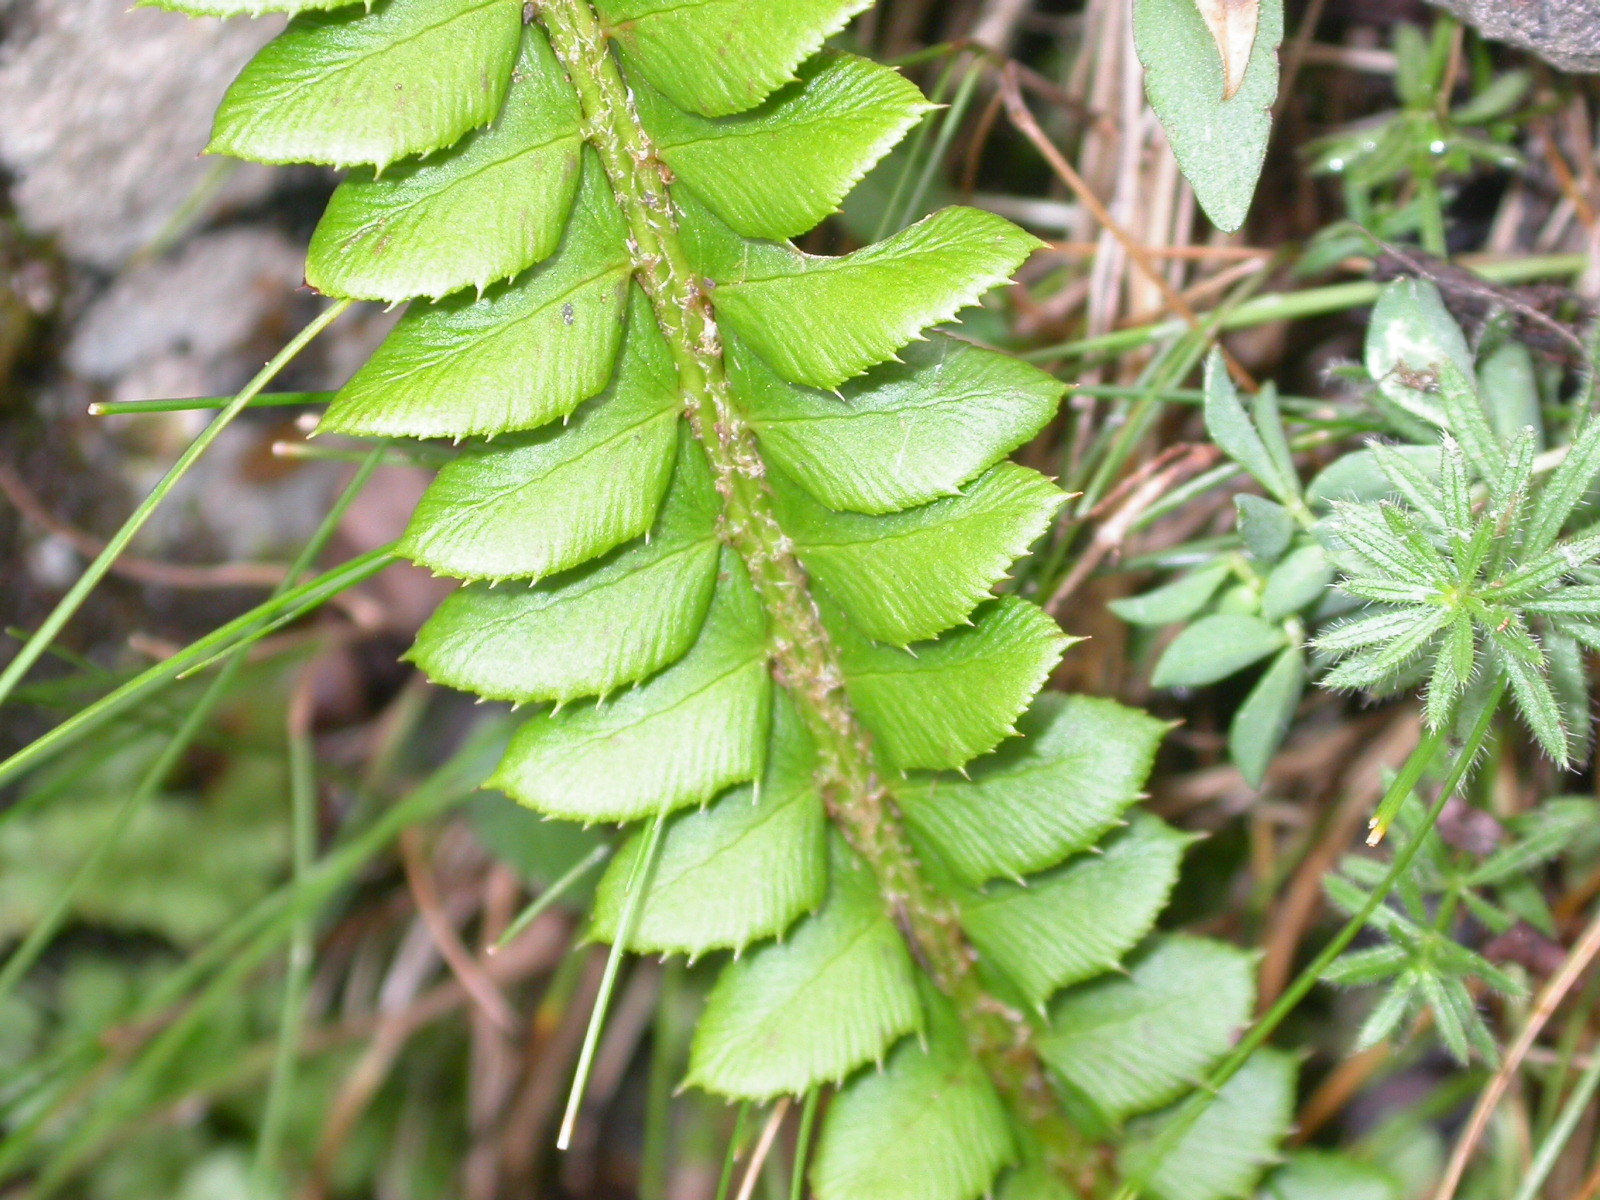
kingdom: Plantae
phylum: Tracheophyta
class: Polypodiopsida
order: Polypodiales
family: Dryopteridaceae
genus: Polystichum
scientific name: Polystichum lonchitis
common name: Holly fern
